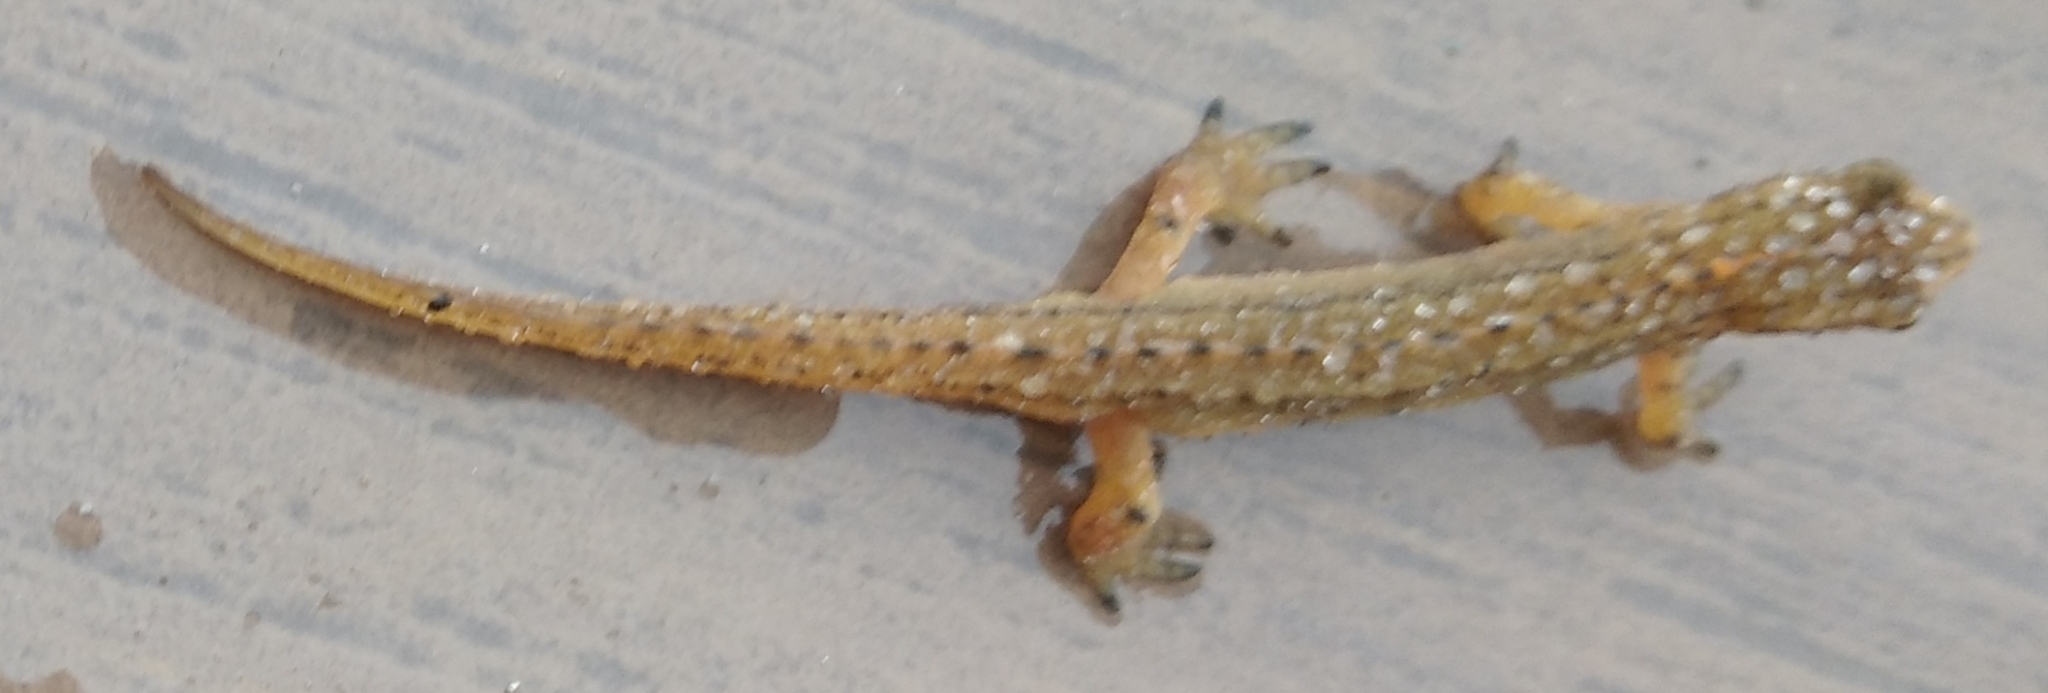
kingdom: Animalia
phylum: Chordata
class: Amphibia
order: Caudata
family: Salamandridae
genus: Lissotriton
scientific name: Lissotriton schmidtleri
